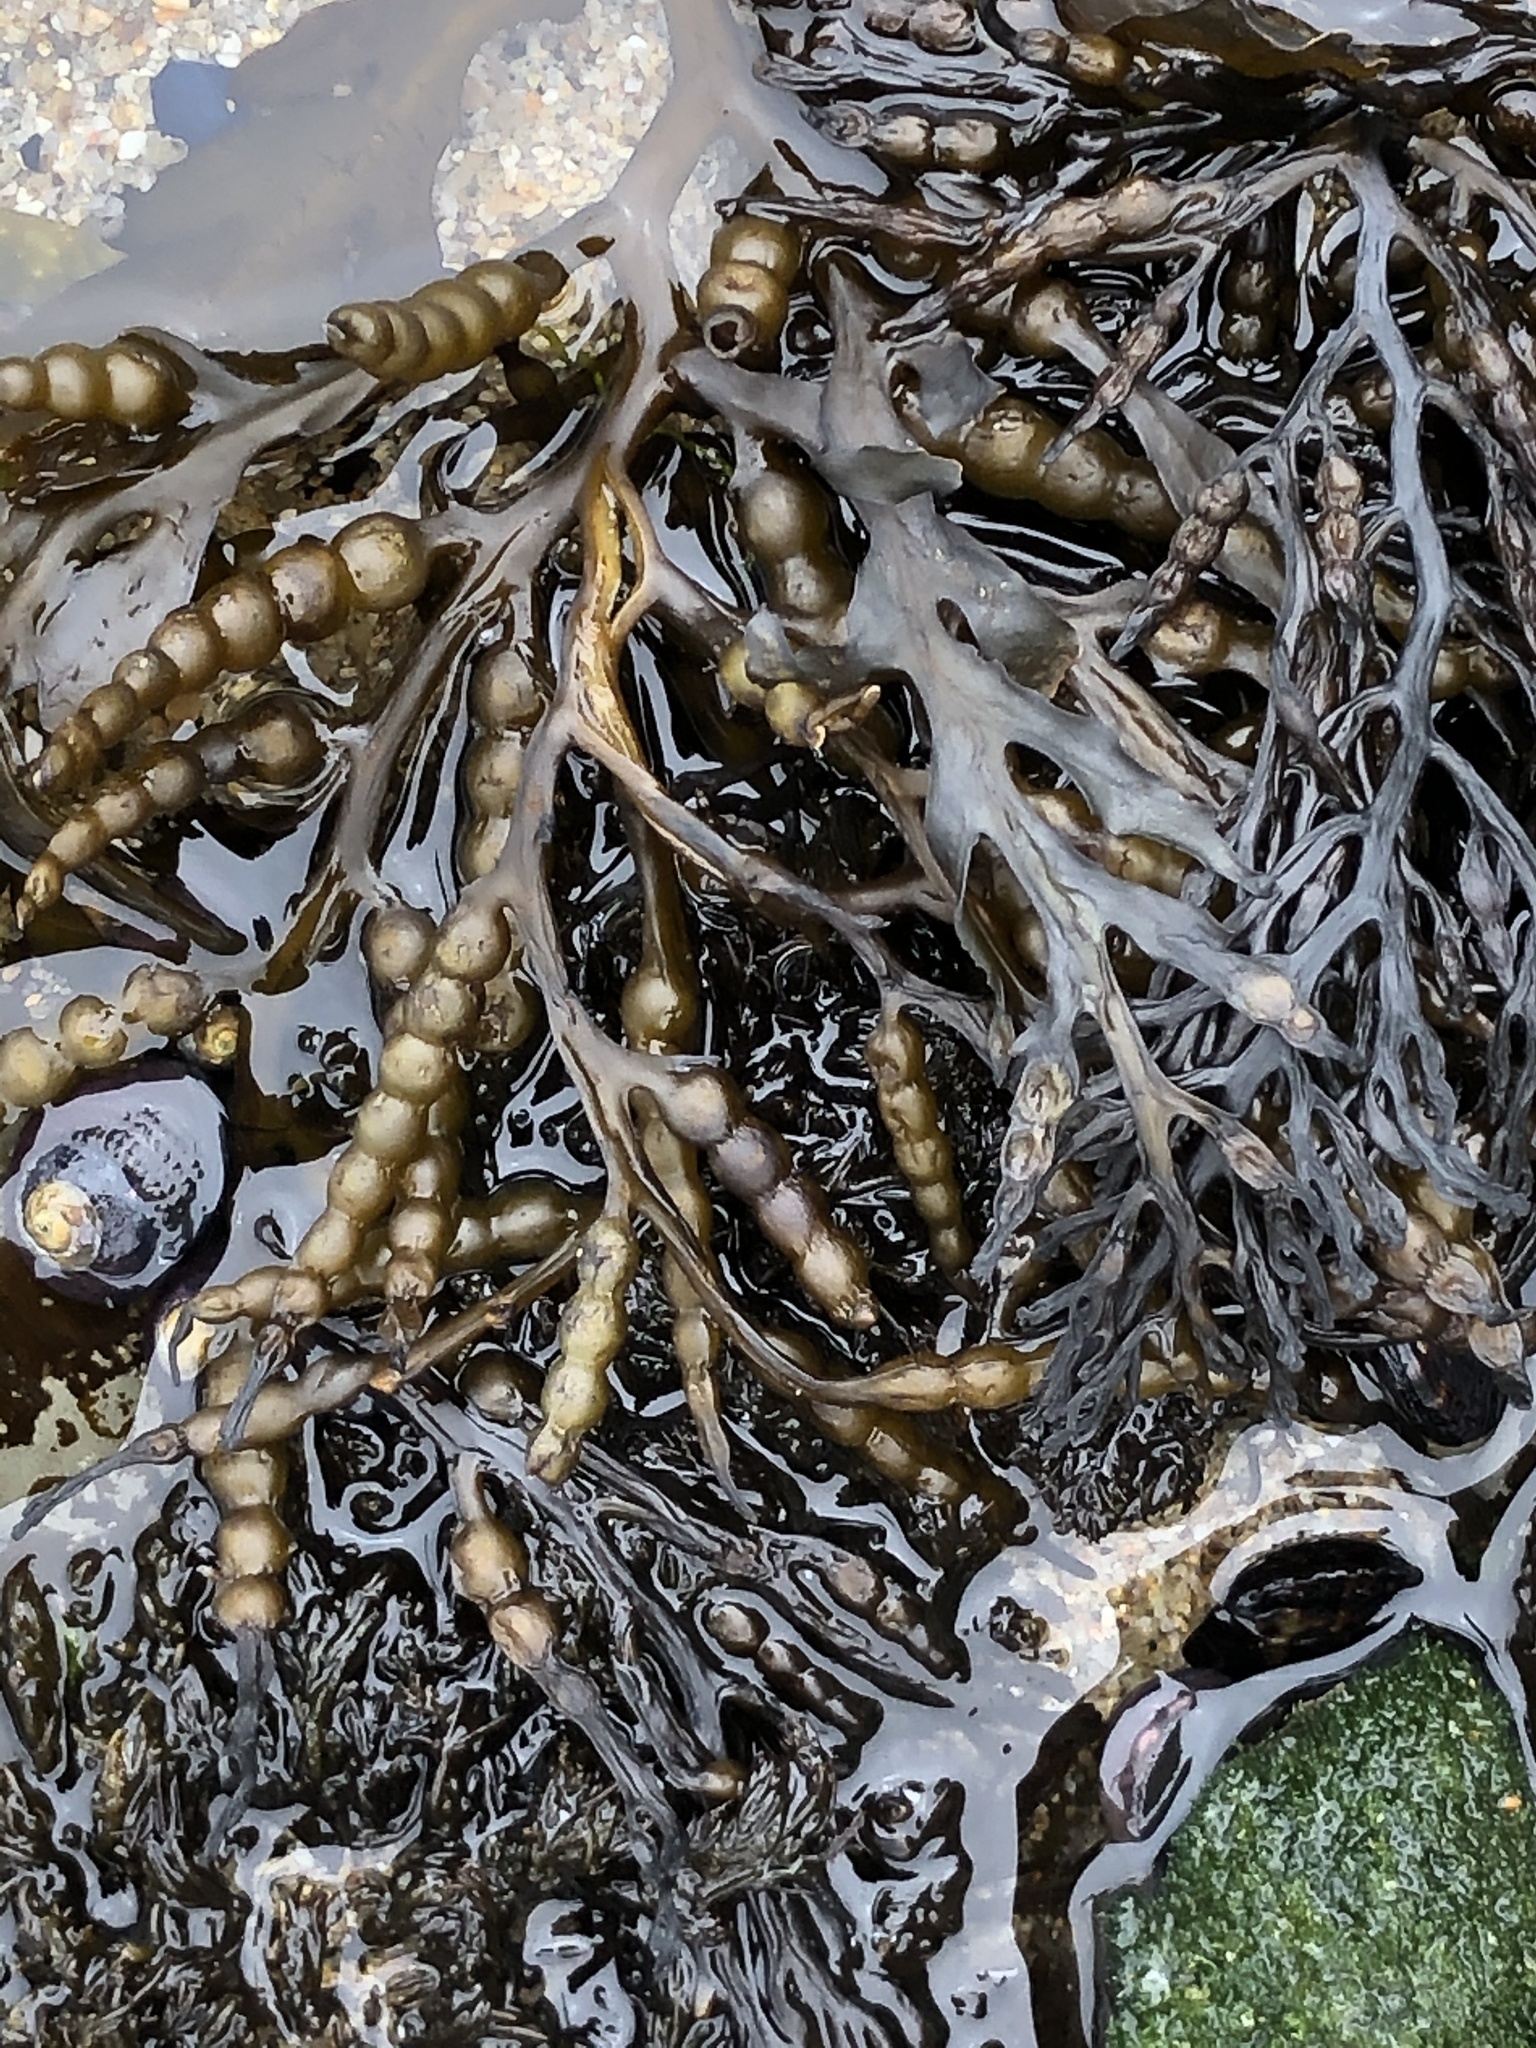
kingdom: Chromista
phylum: Ochrophyta
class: Phaeophyceae
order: Fucales
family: Sargassaceae
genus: Stephanocystis
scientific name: Stephanocystis
